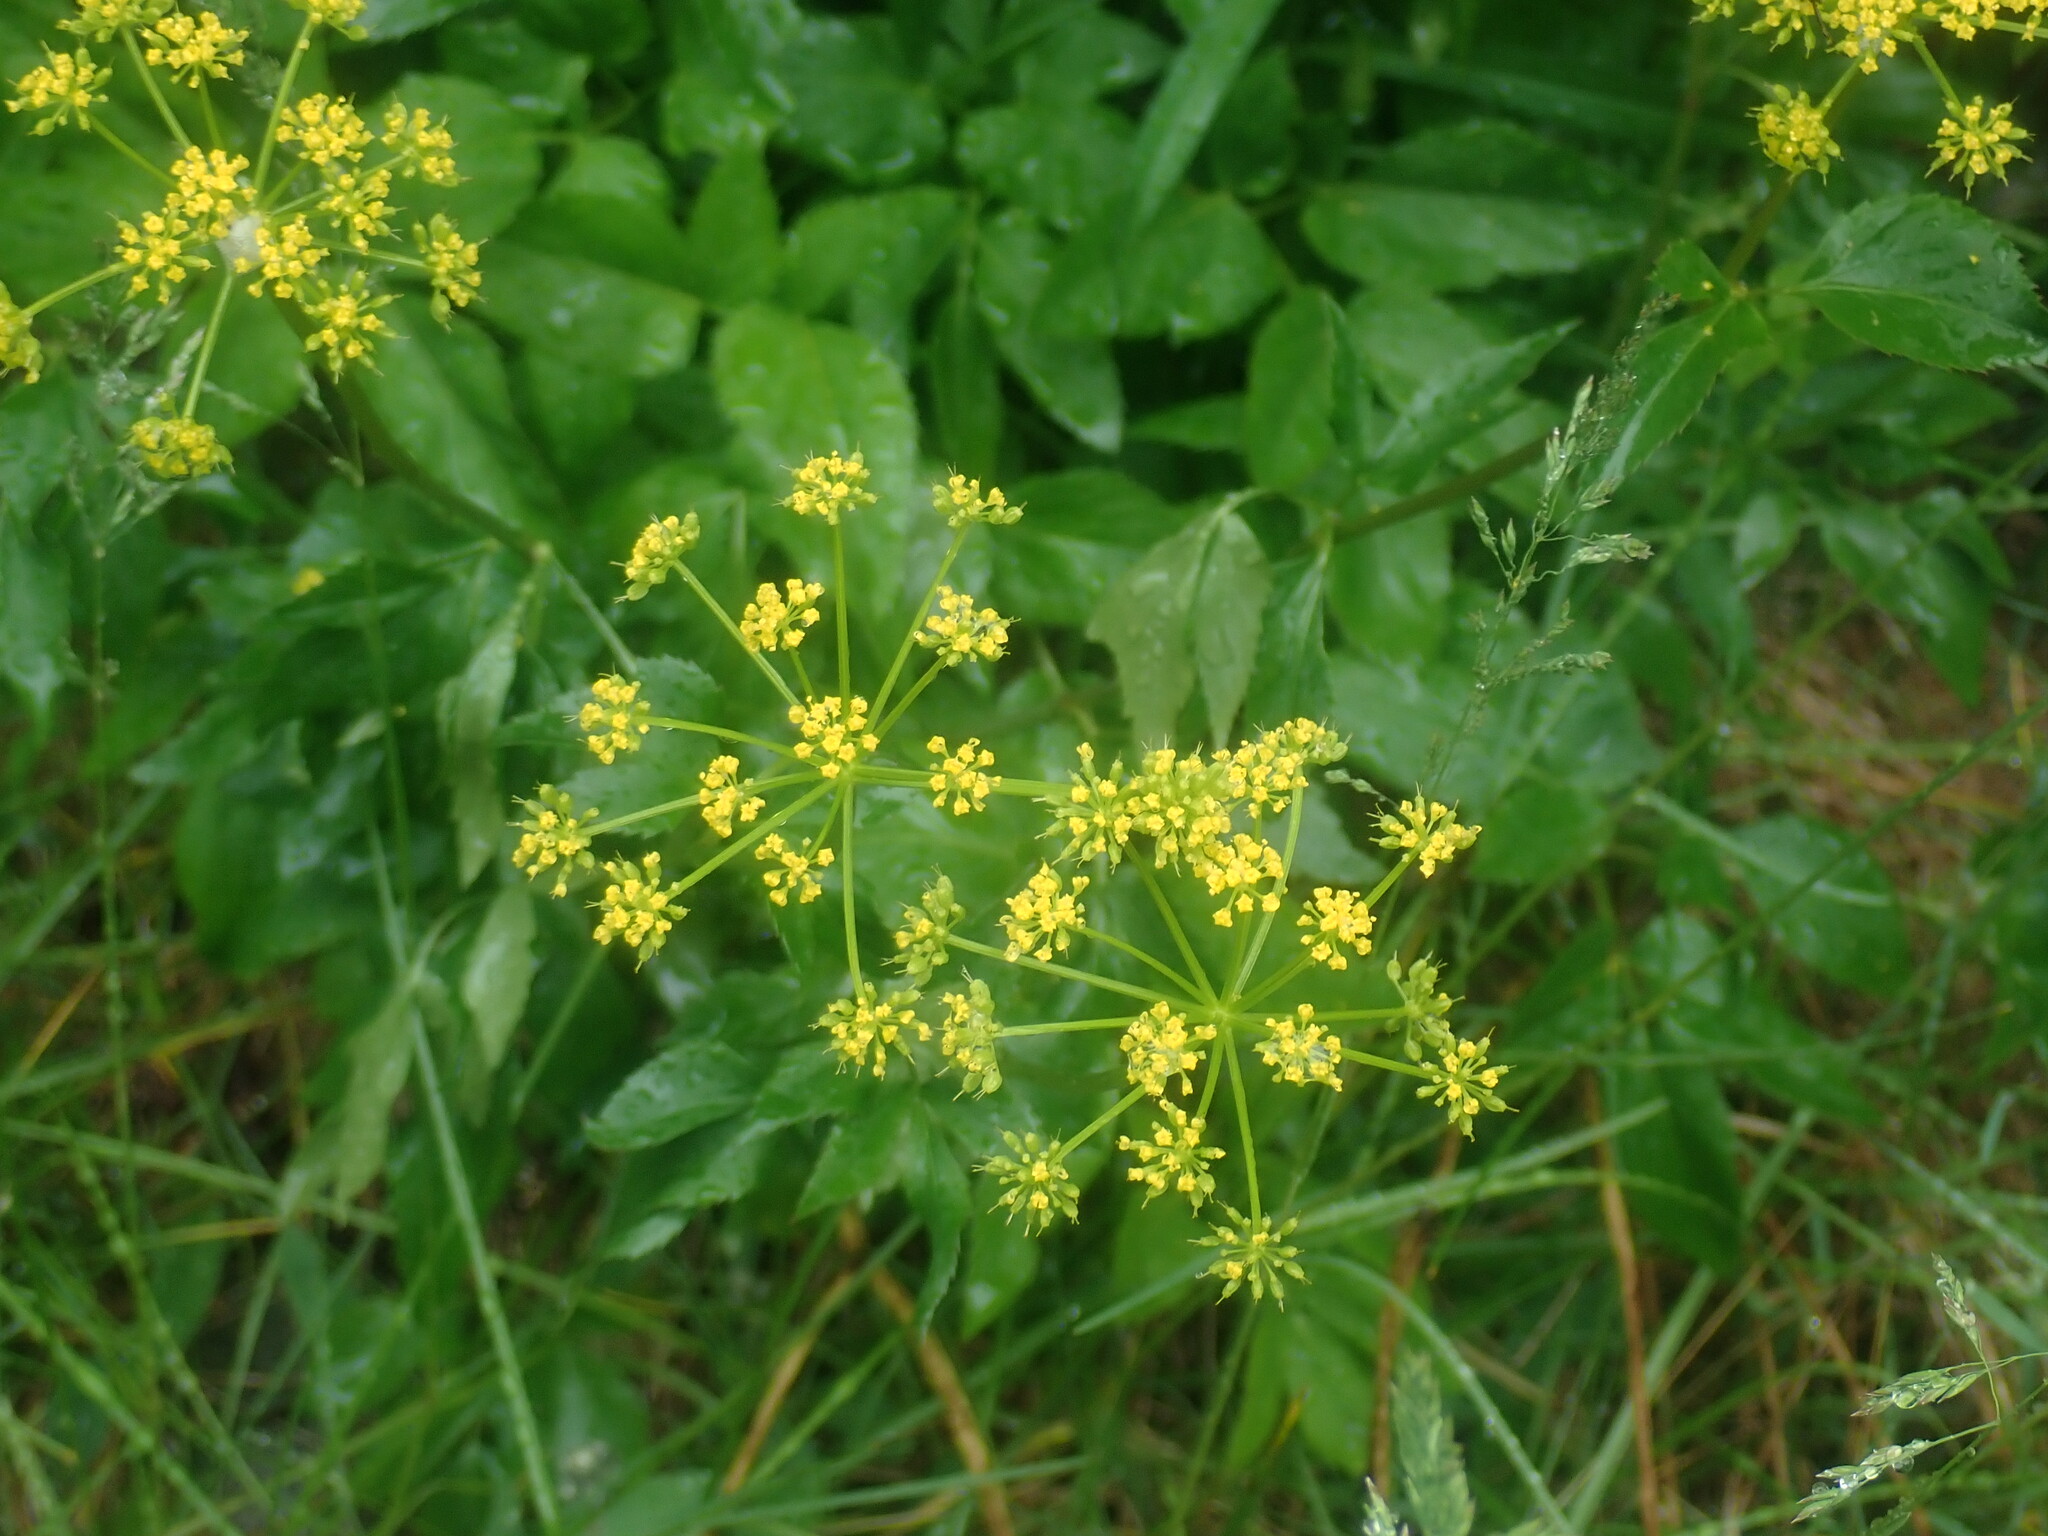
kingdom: Plantae
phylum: Tracheophyta
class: Magnoliopsida
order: Apiales
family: Apiaceae
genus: Zizia
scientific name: Zizia aurea
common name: Golden alexanders
